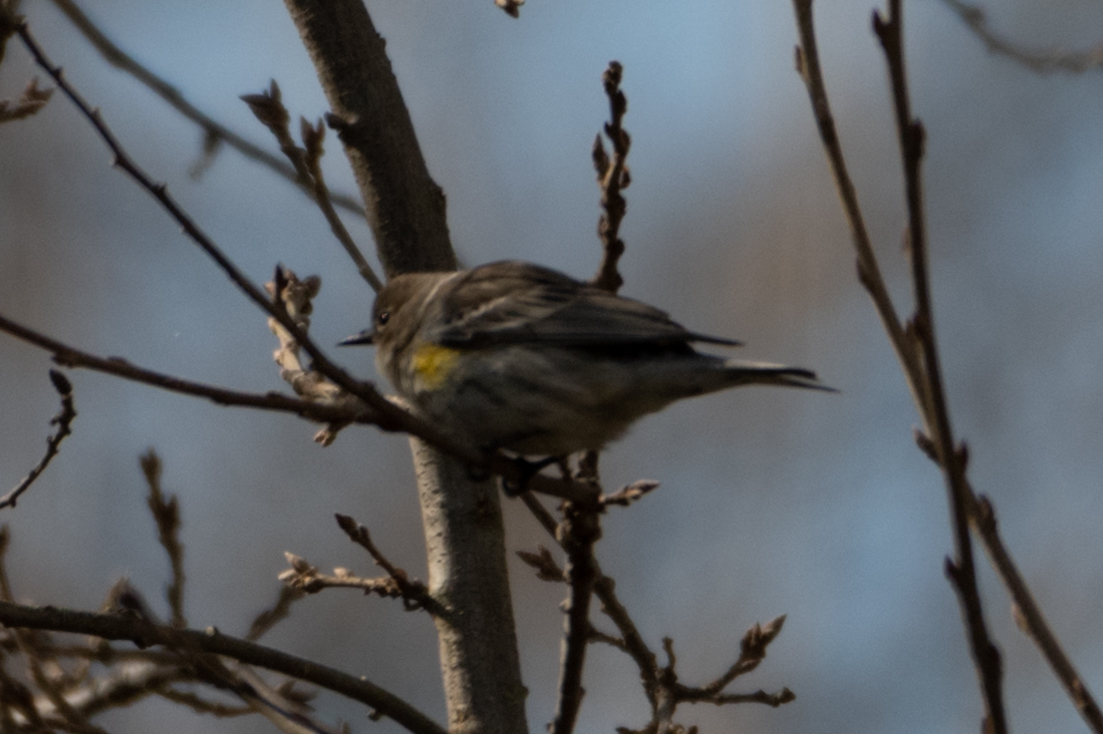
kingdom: Animalia
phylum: Chordata
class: Aves
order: Passeriformes
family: Parulidae
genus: Setophaga
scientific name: Setophaga coronata
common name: Myrtle warbler
